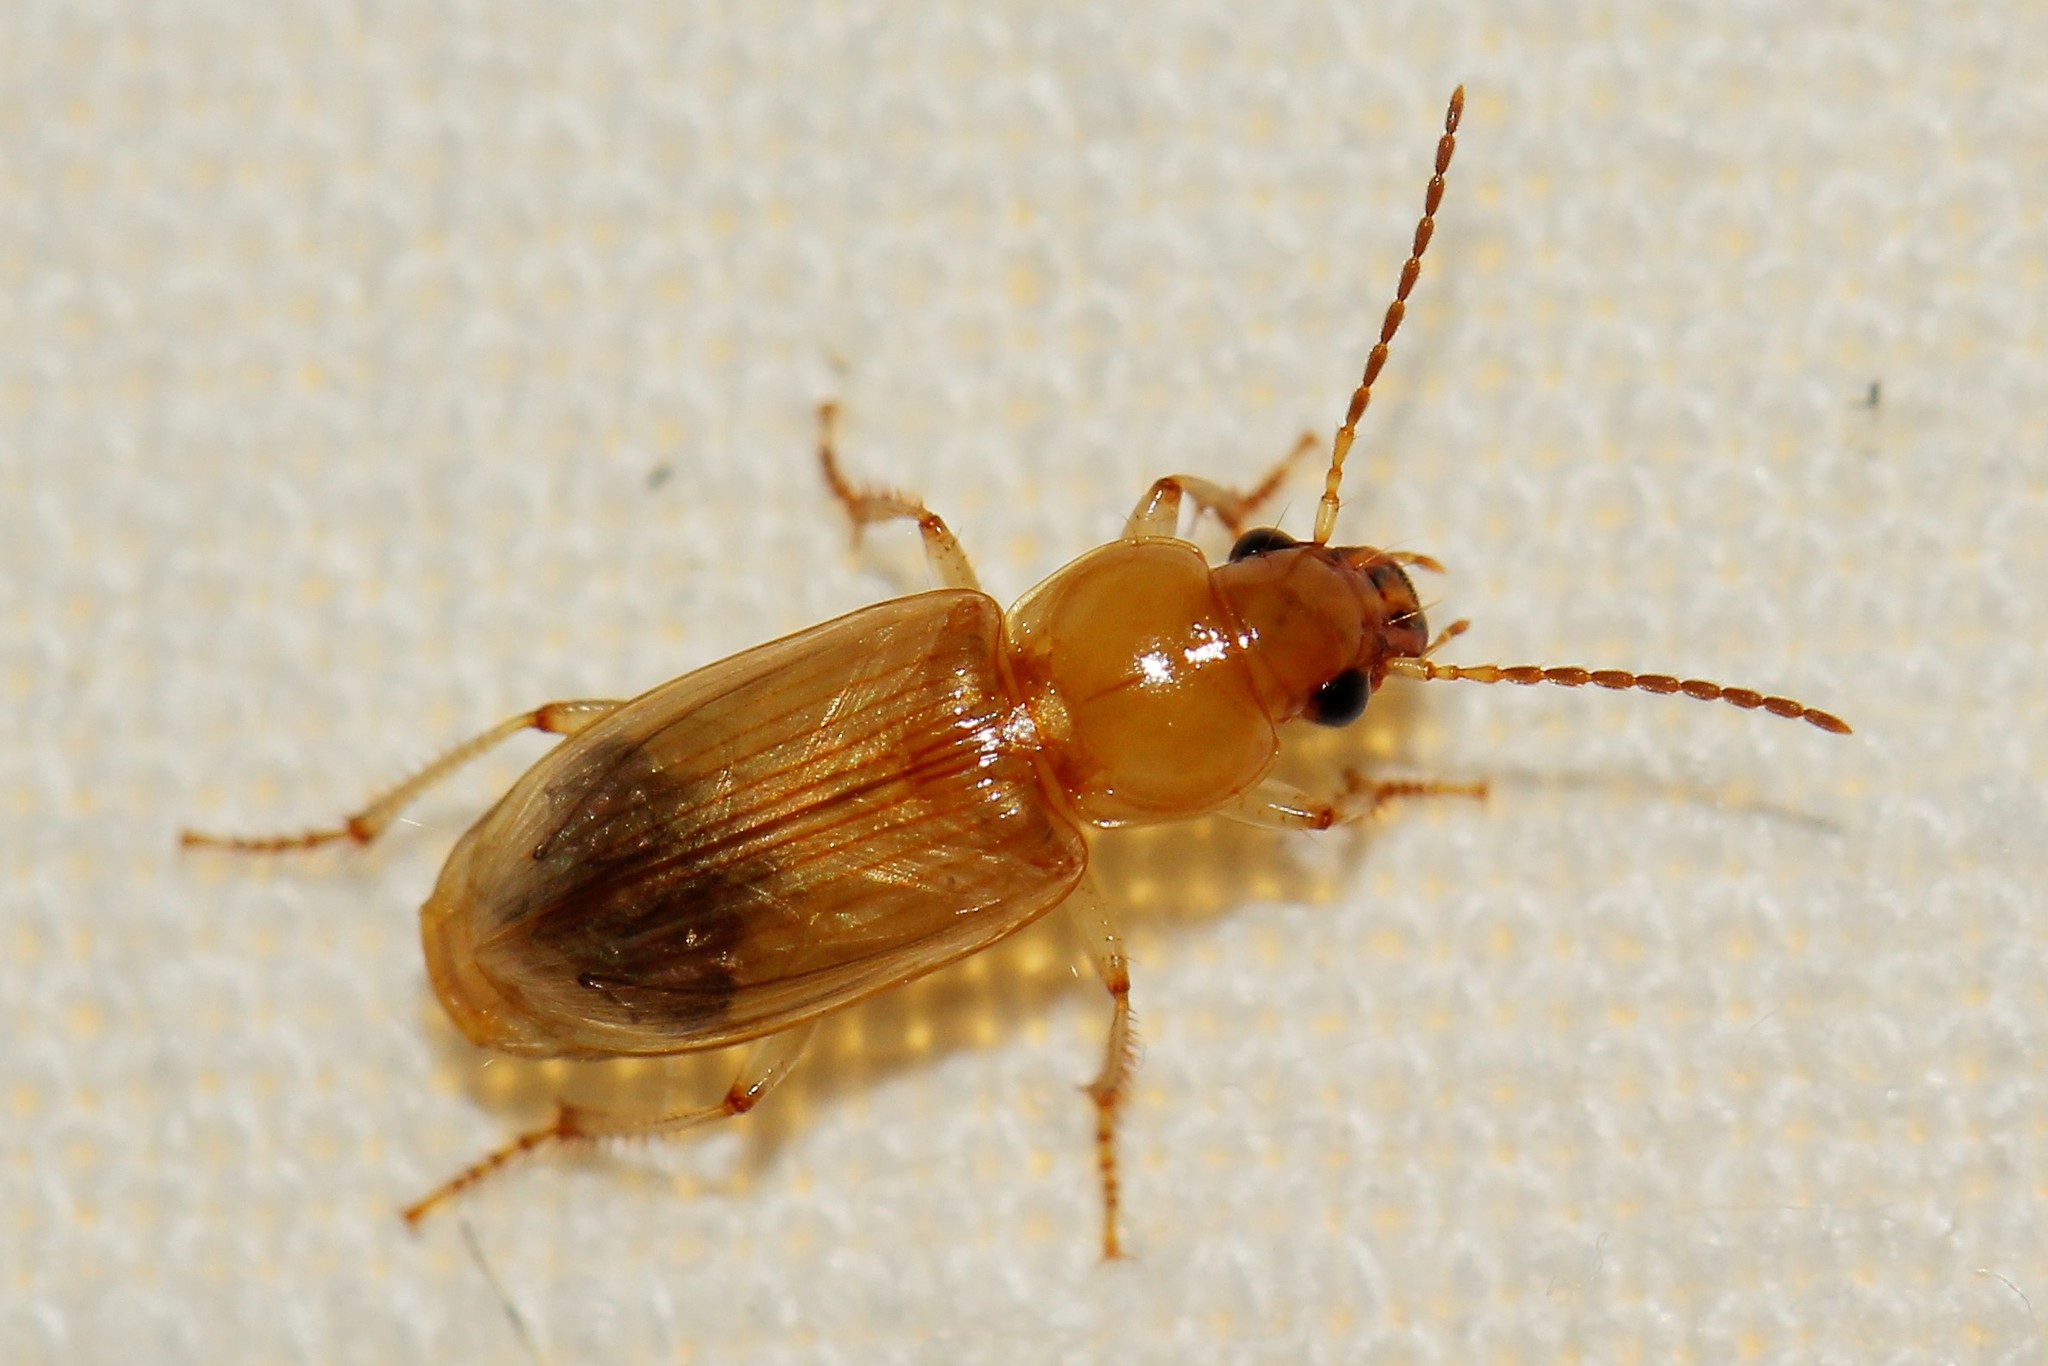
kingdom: Animalia
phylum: Arthropoda
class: Insecta
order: Coleoptera
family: Carabidae
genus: Stenolophus
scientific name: Stenolophus discophorus
